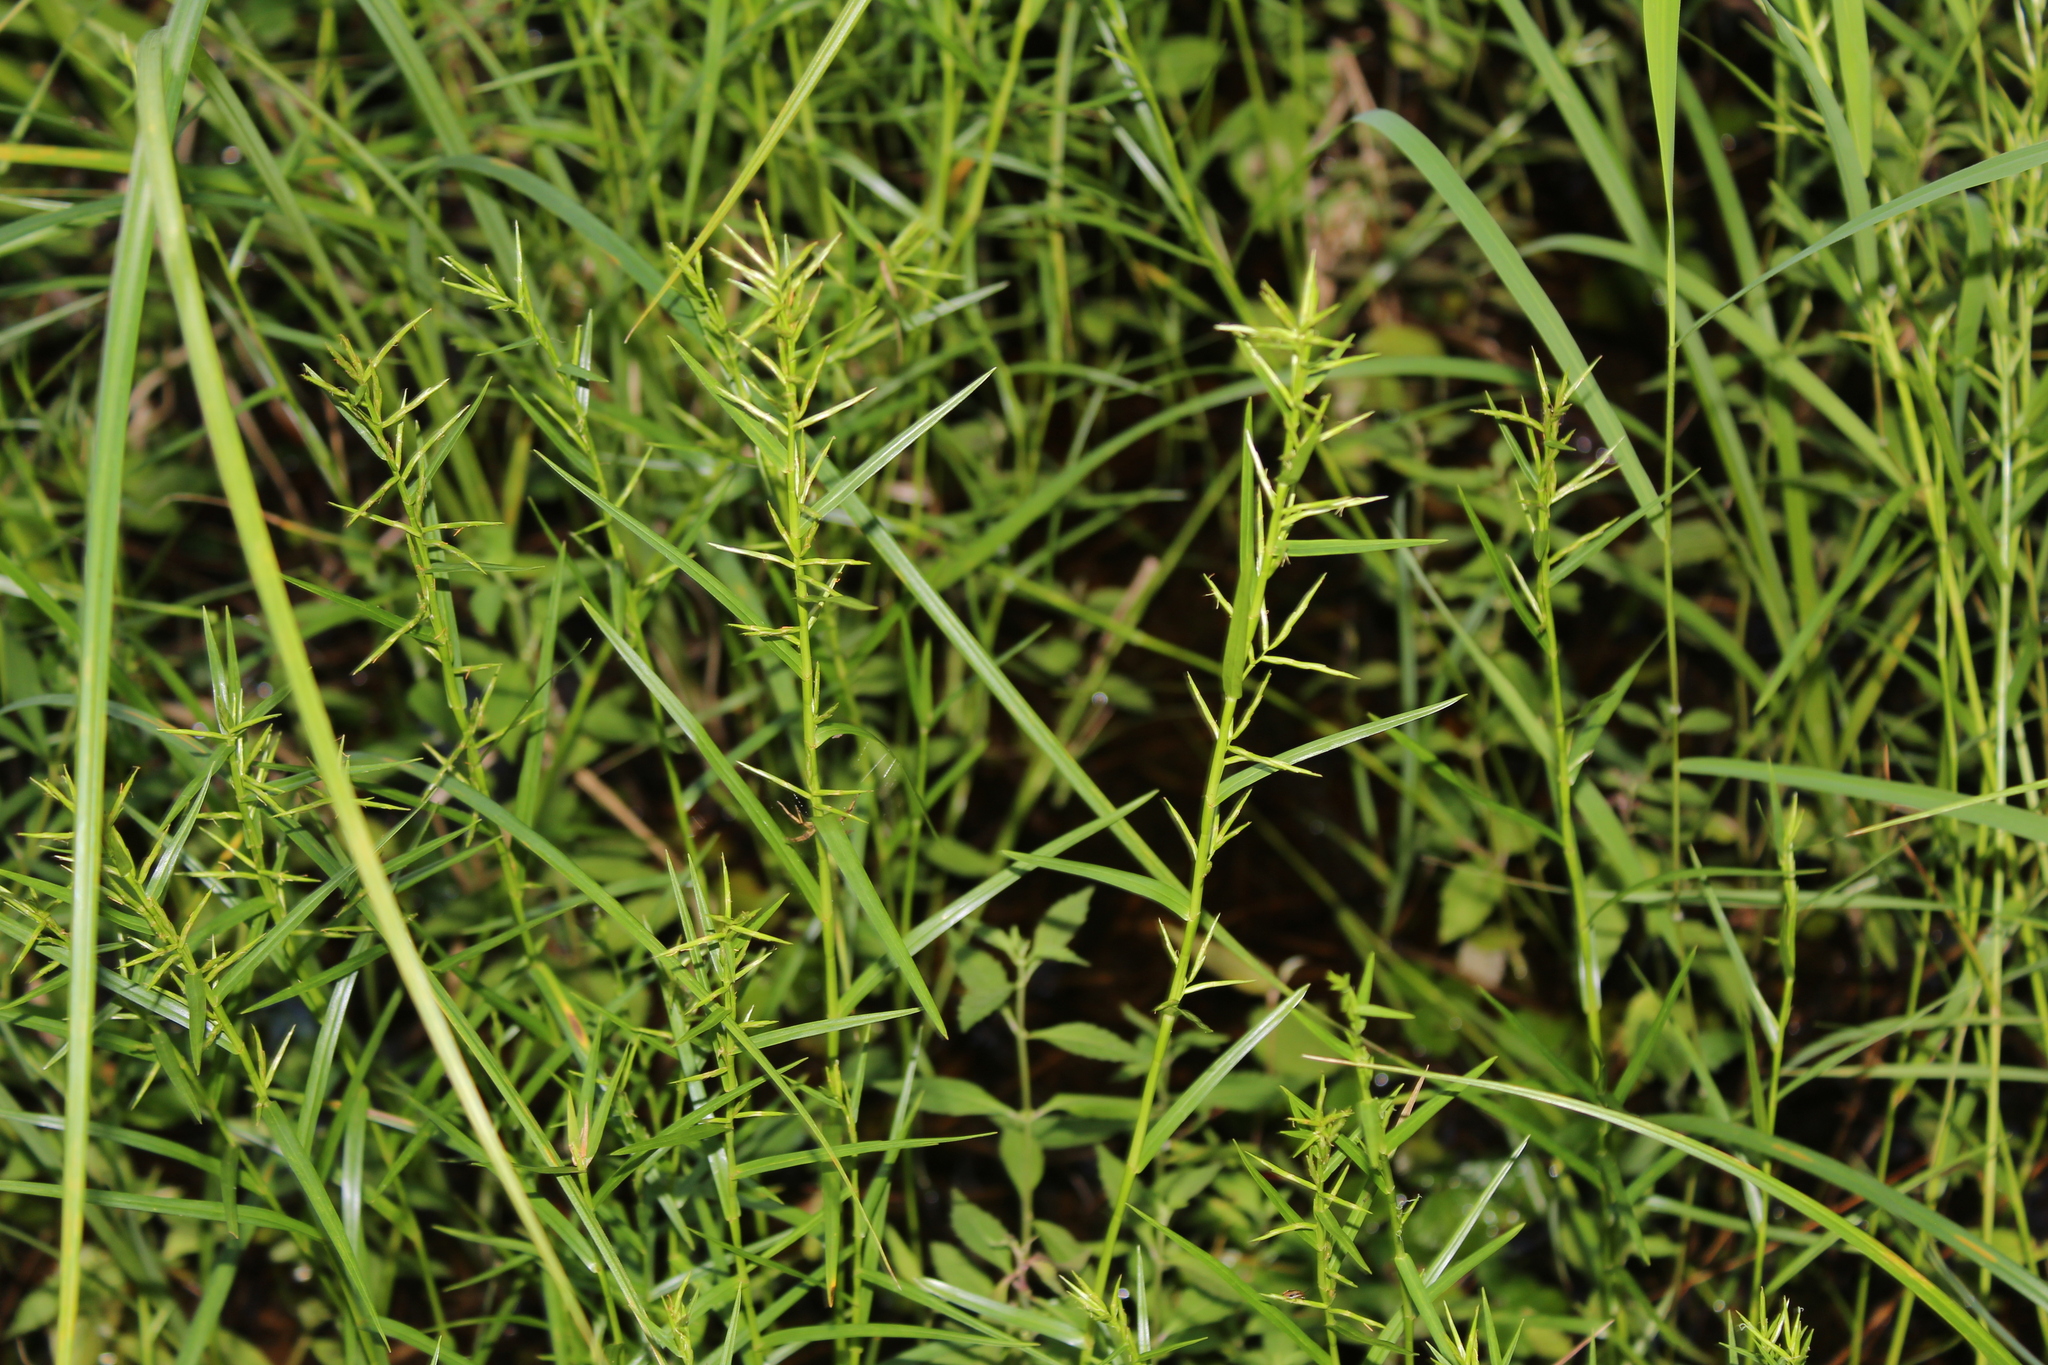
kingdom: Plantae
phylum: Tracheophyta
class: Liliopsida
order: Poales
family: Cyperaceae
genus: Dulichium
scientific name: Dulichium arundinaceum
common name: Three-way sedge
